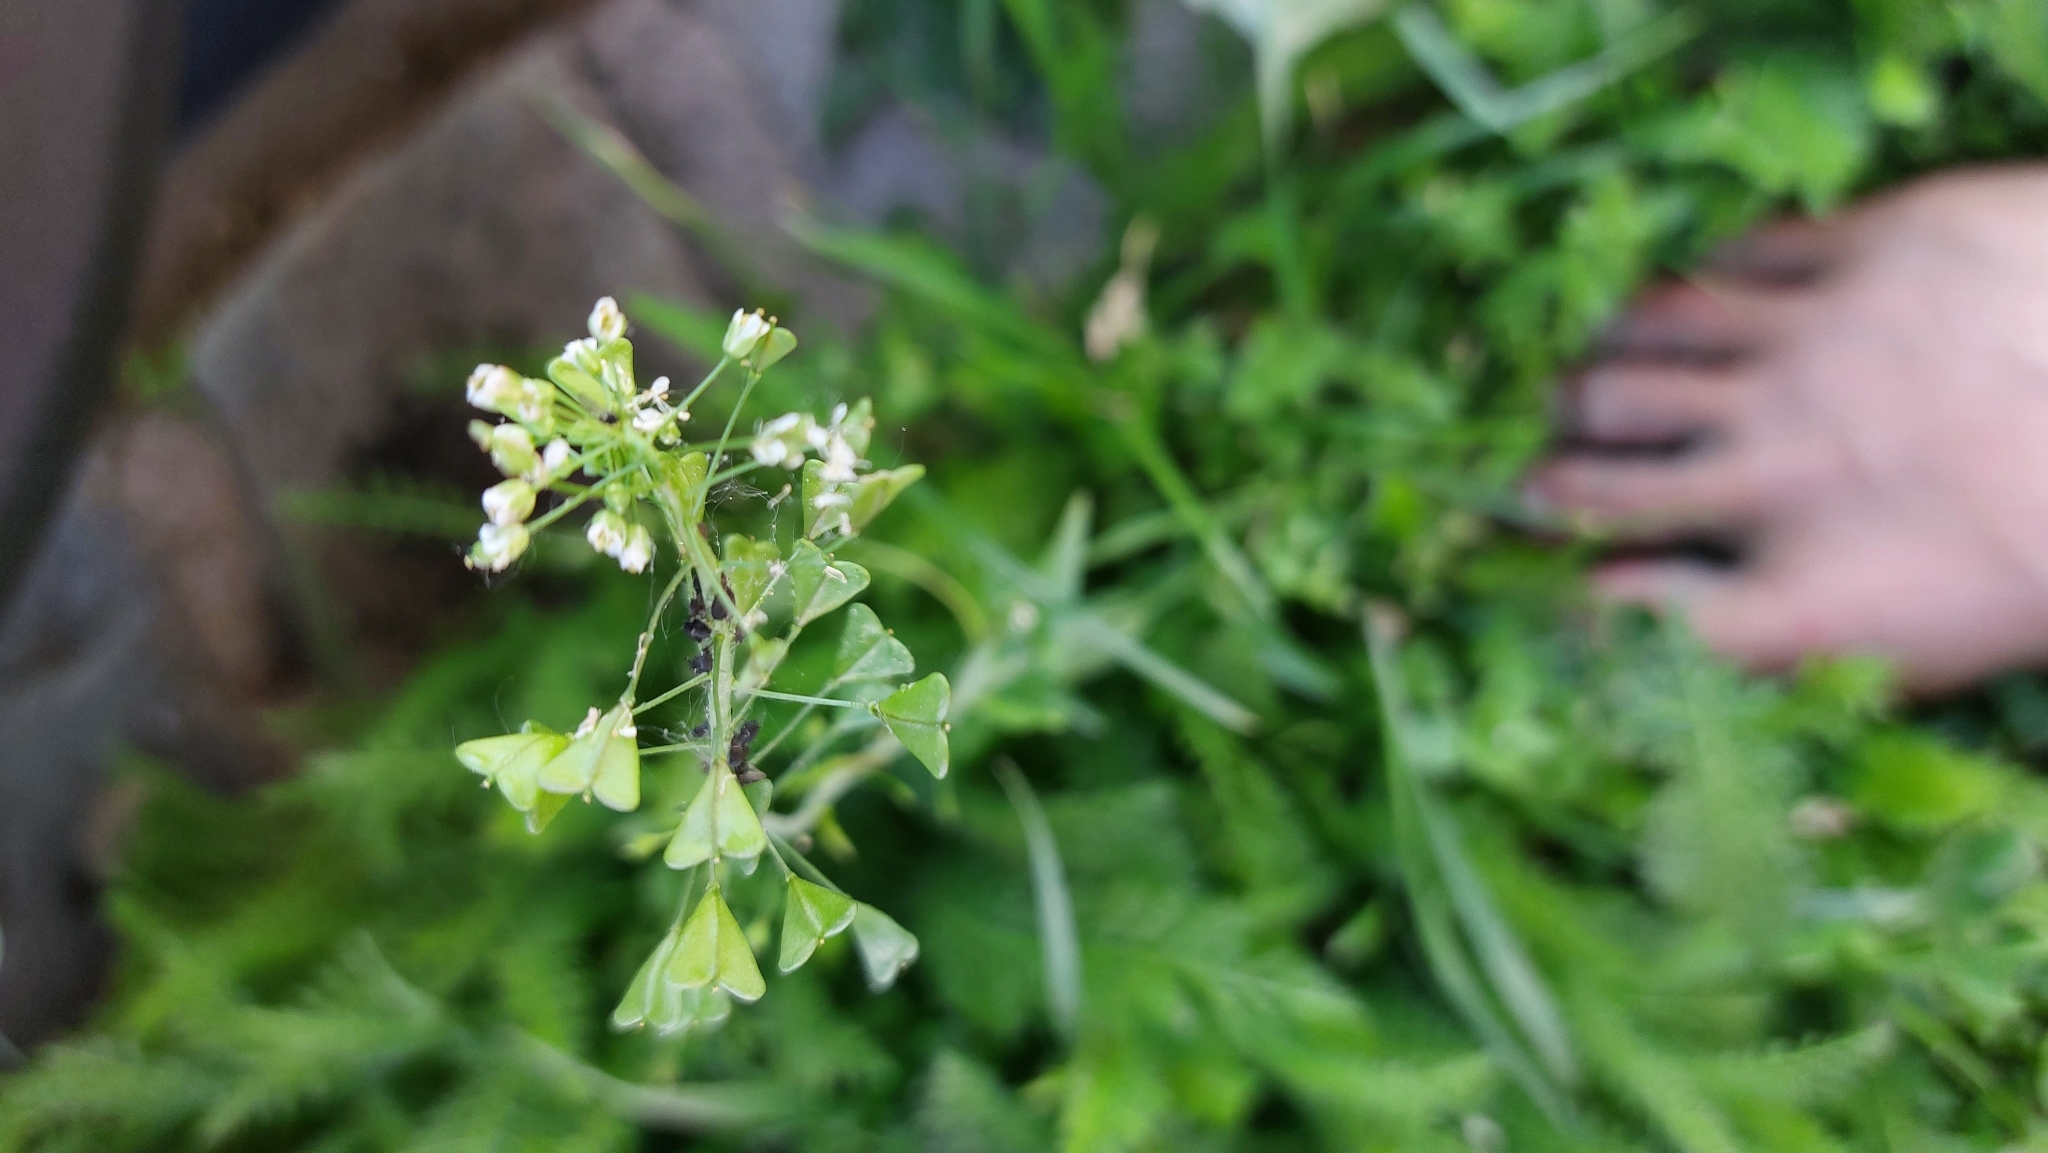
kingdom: Plantae
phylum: Tracheophyta
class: Magnoliopsida
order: Brassicales
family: Brassicaceae
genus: Capsella
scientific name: Capsella bursa-pastoris
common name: Shepherd's purse
